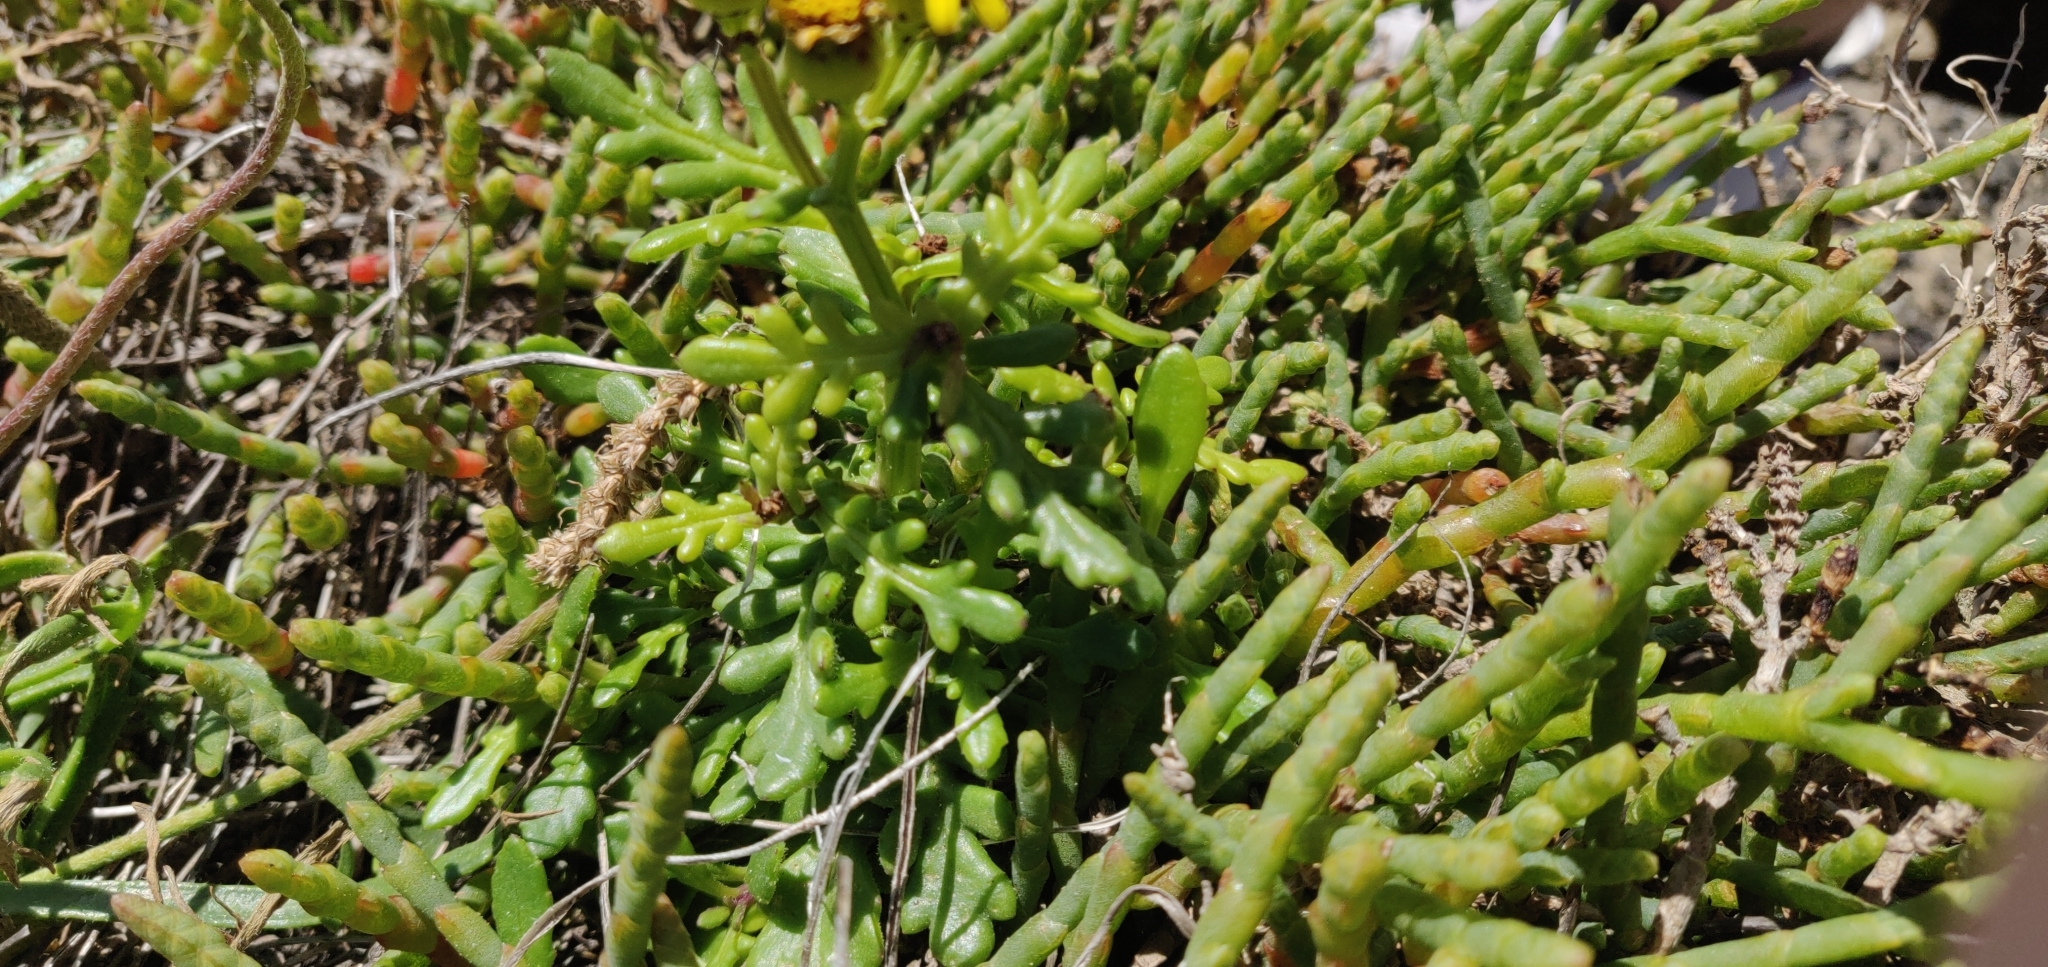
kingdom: Plantae
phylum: Tracheophyta
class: Magnoliopsida
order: Asterales
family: Asteraceae
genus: Senecio
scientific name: Senecio lautus
